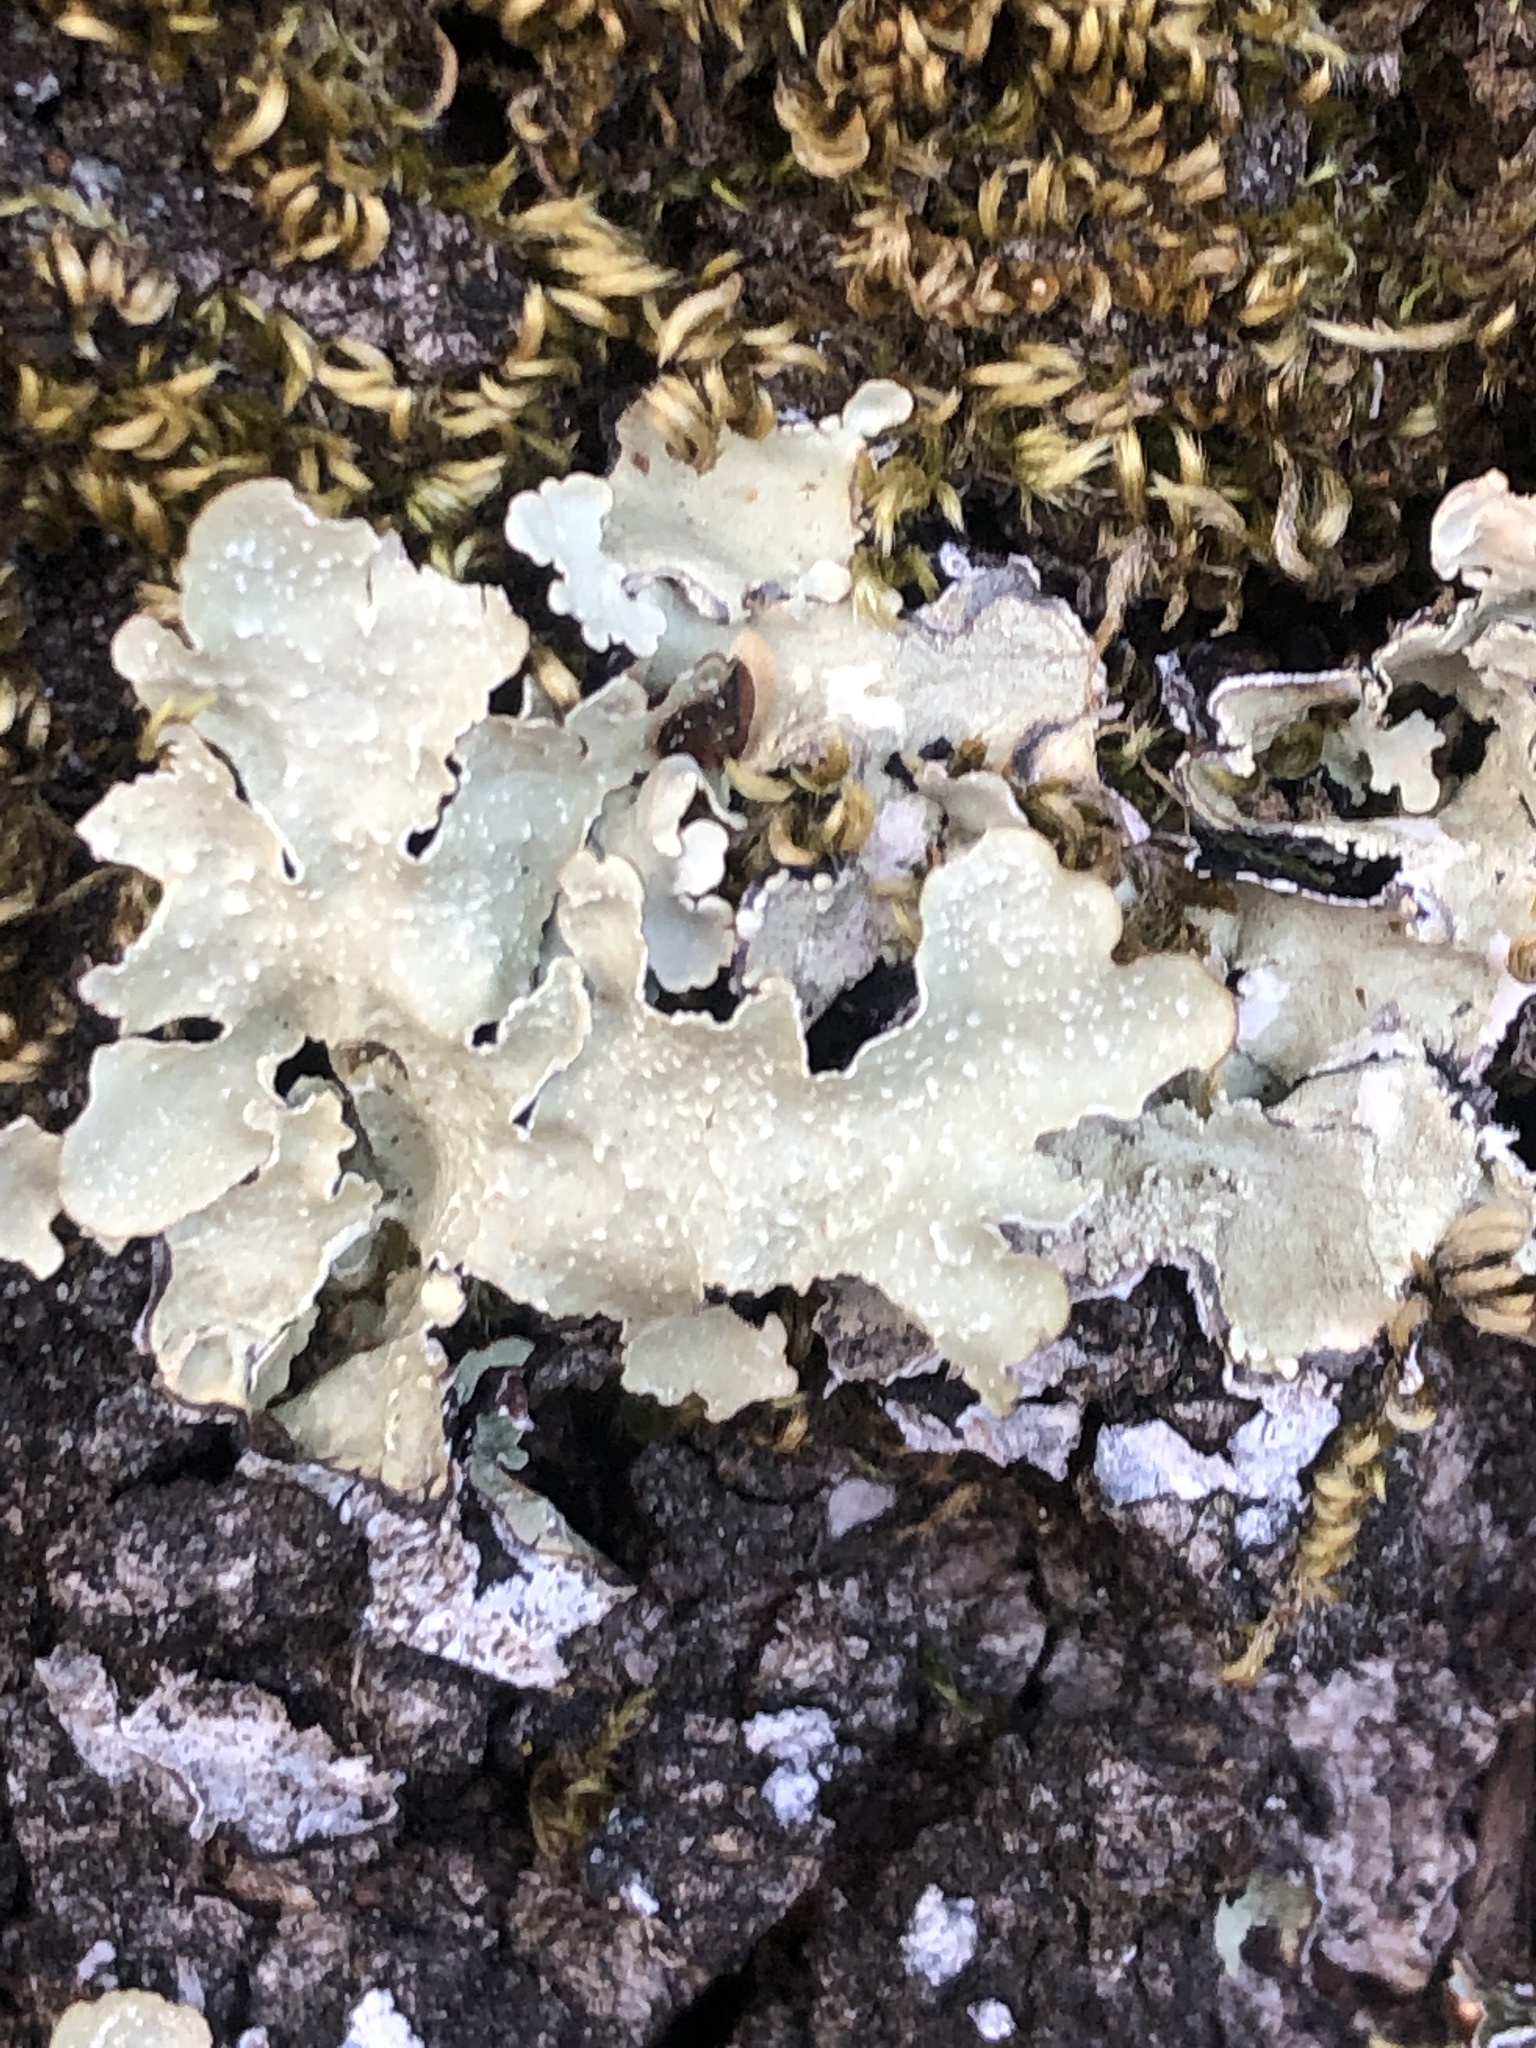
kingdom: Fungi
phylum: Ascomycota
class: Lecanoromycetes
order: Lecanorales
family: Parmeliaceae
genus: Flavopunctelia
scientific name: Flavopunctelia flaventior
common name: Speckled greenshield
